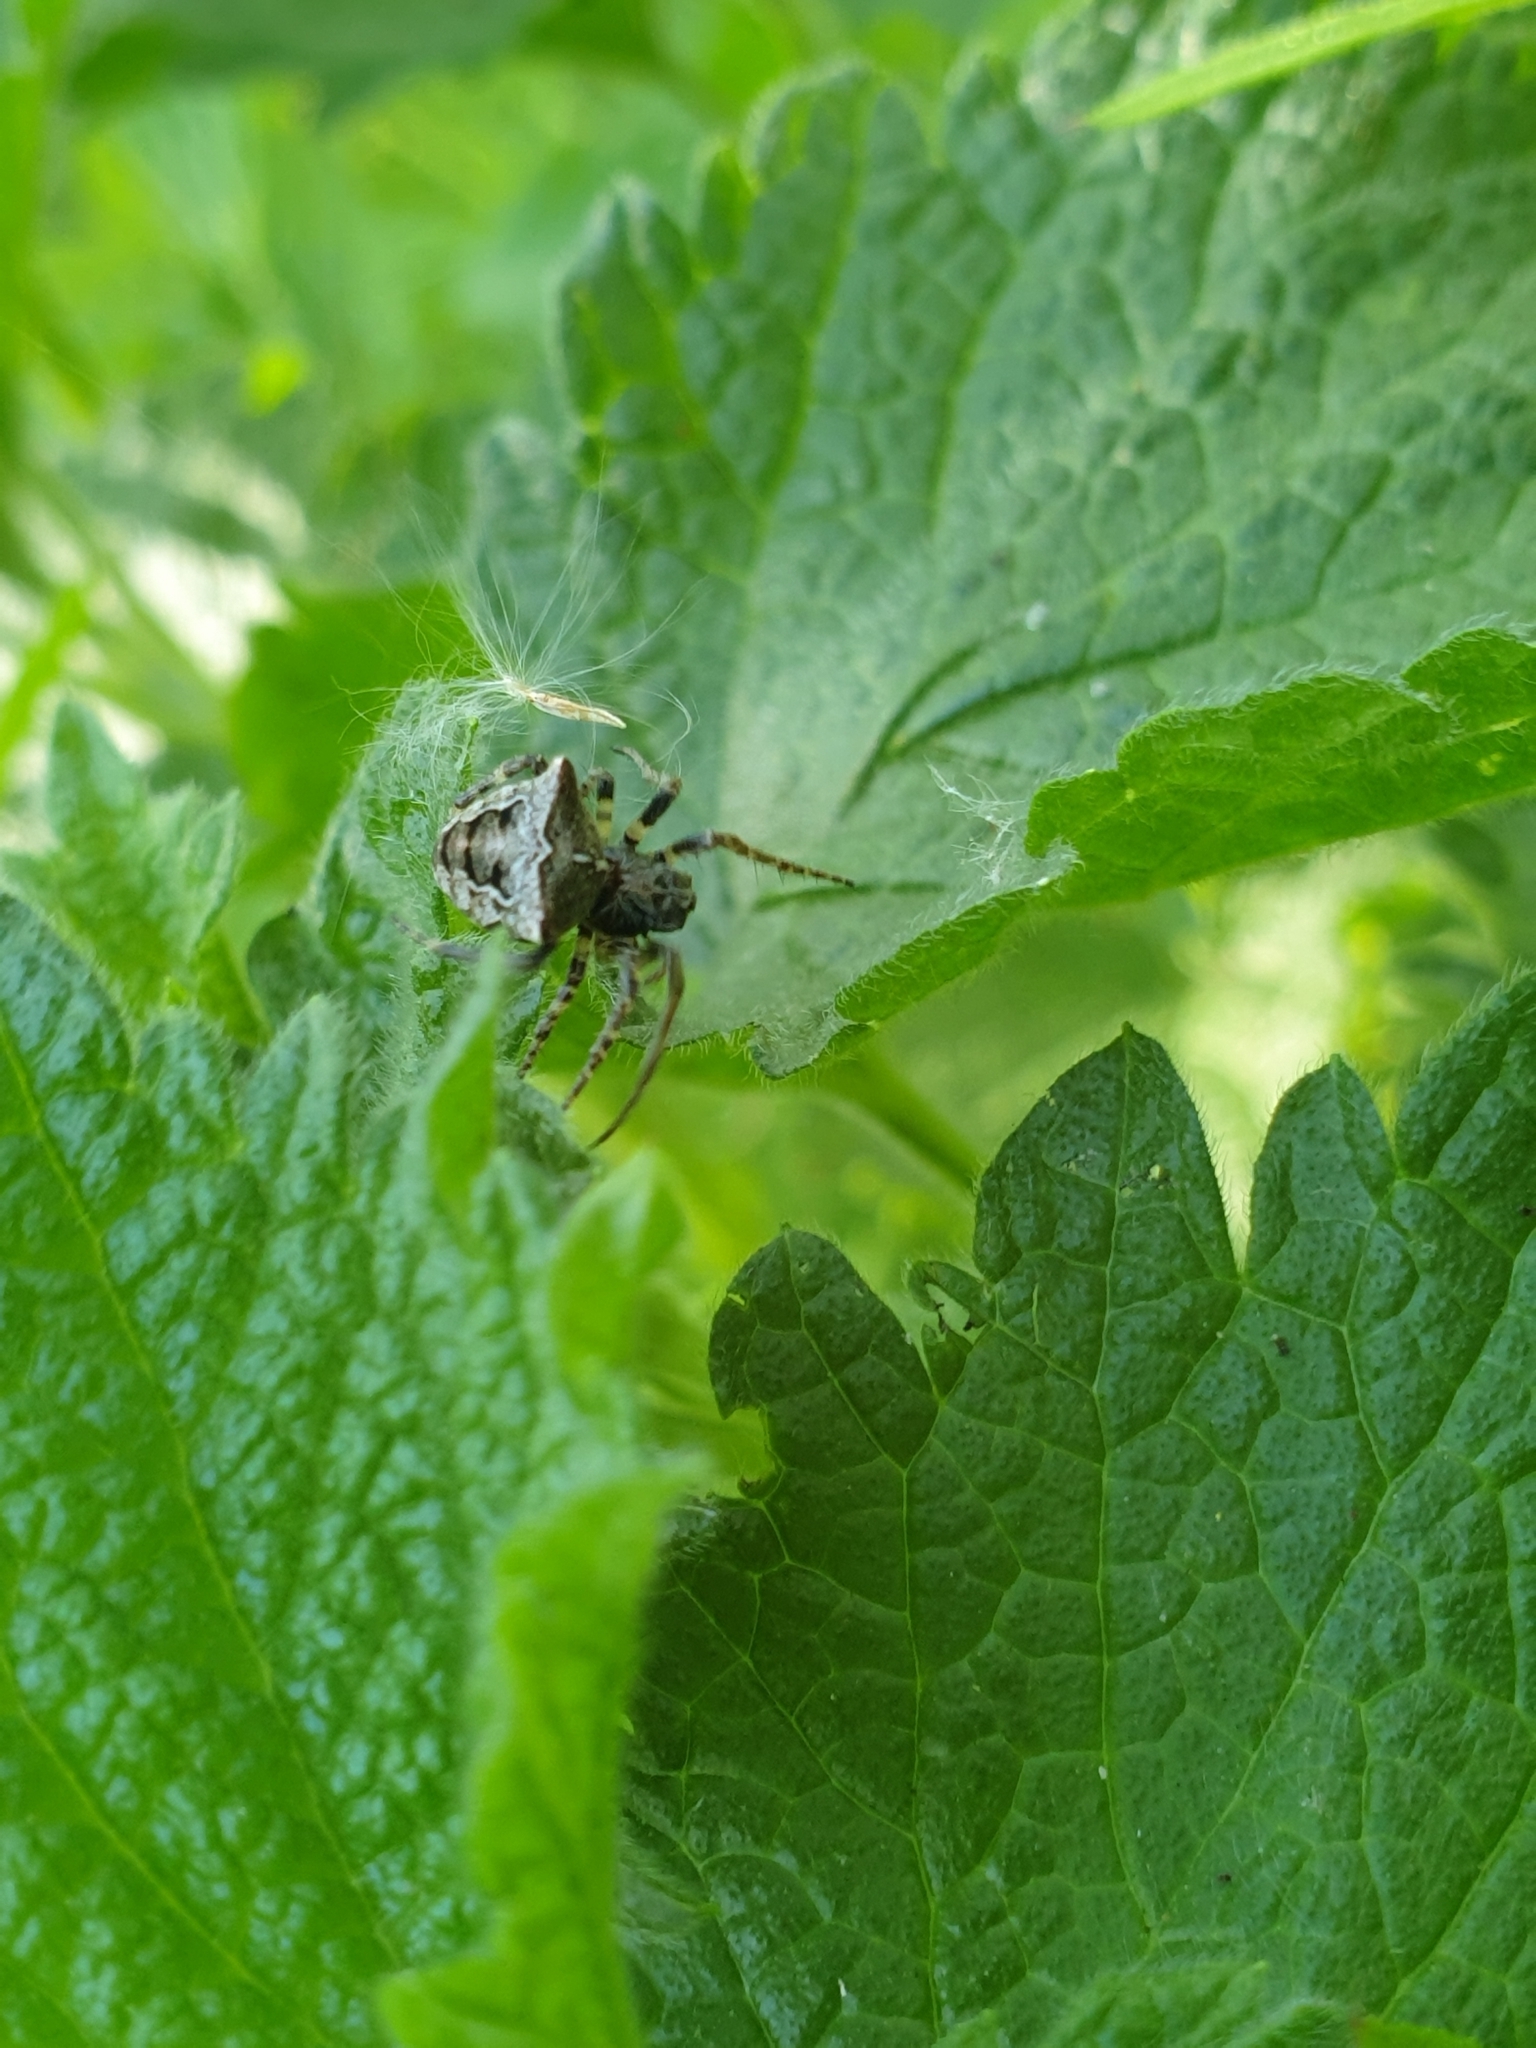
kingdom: Animalia
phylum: Arthropoda
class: Arachnida
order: Araneae
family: Araneidae
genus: Gibbaranea
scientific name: Gibbaranea bituberculata
